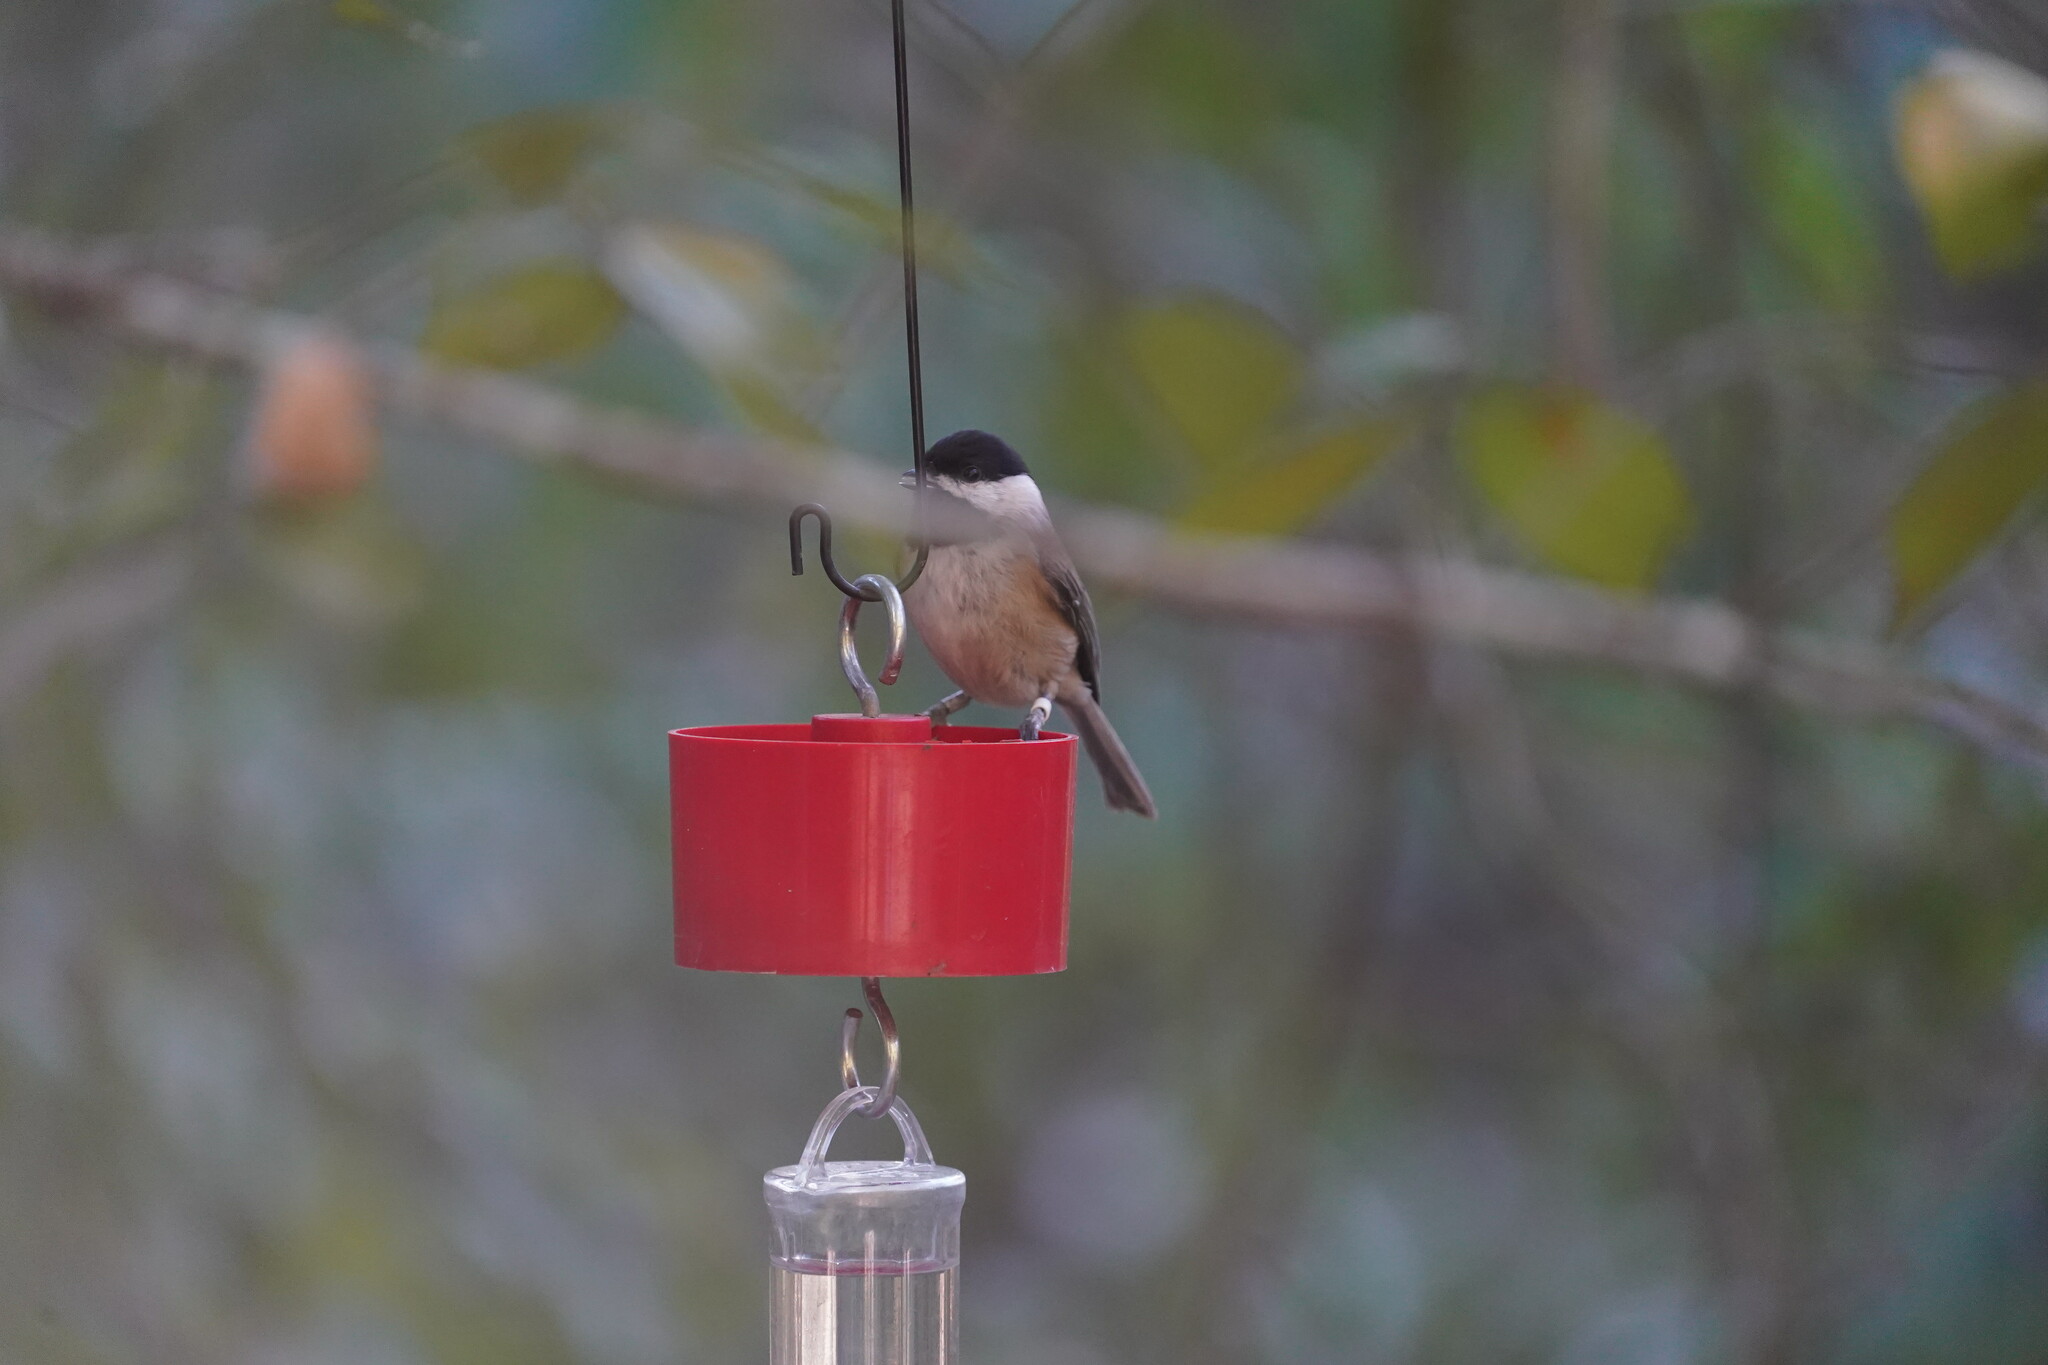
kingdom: Animalia
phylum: Chordata
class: Aves
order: Passeriformes
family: Paridae
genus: Poecile
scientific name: Poecile carolinensis
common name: Carolina chickadee
